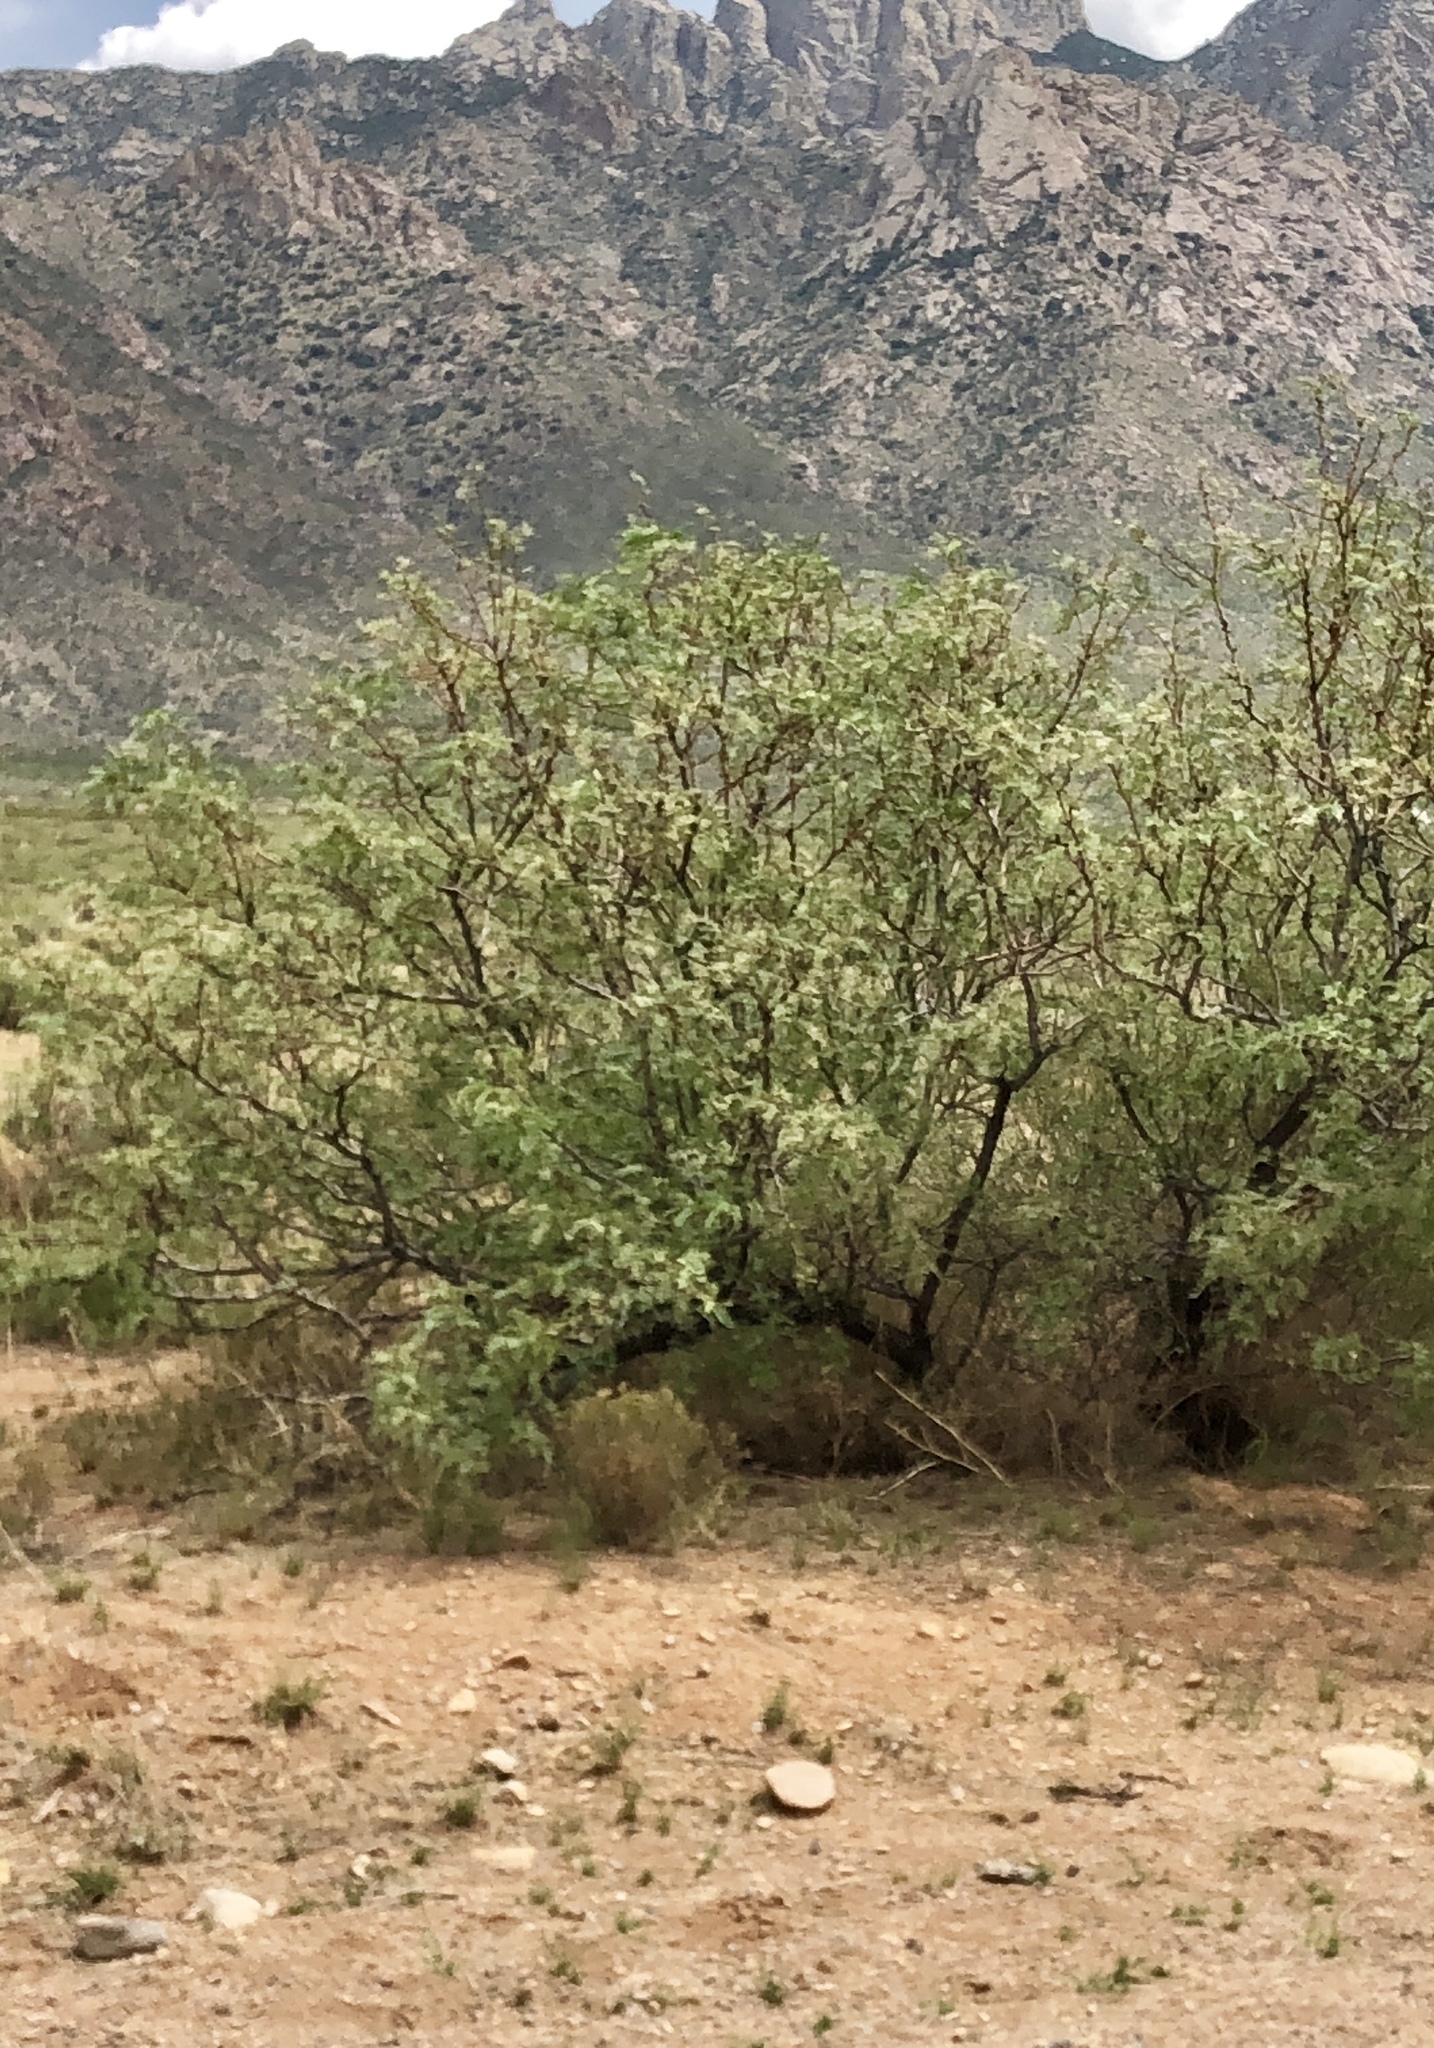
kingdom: Plantae
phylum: Tracheophyta
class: Magnoliopsida
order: Fabales
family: Fabaceae
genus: Prosopis
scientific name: Prosopis glandulosa
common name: Honey mesquite
